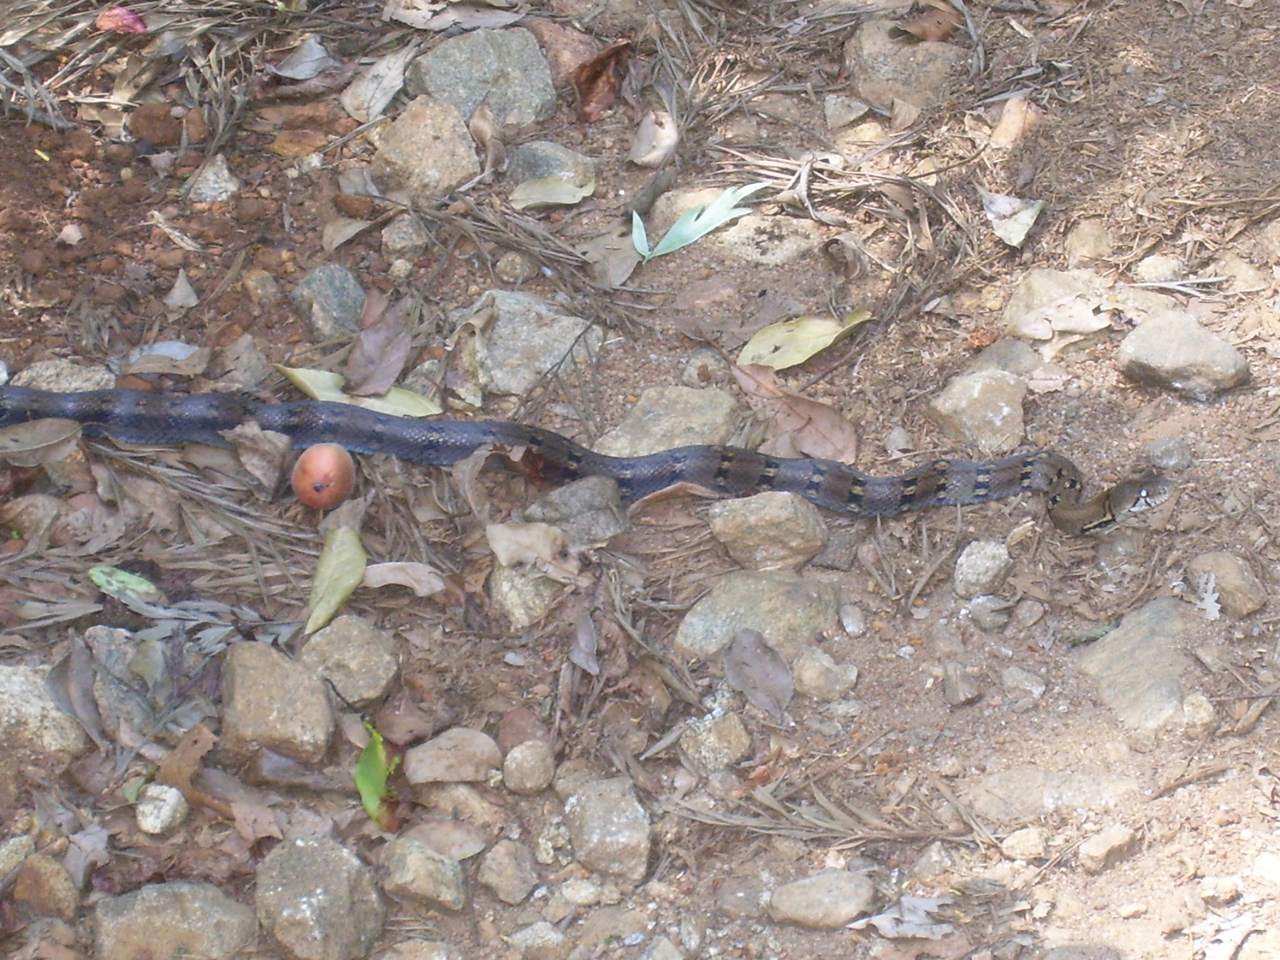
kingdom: Animalia
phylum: Chordata
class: Squamata
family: Colubridae
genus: Coelognathus
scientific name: Coelognathus helena
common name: Trinket snake
